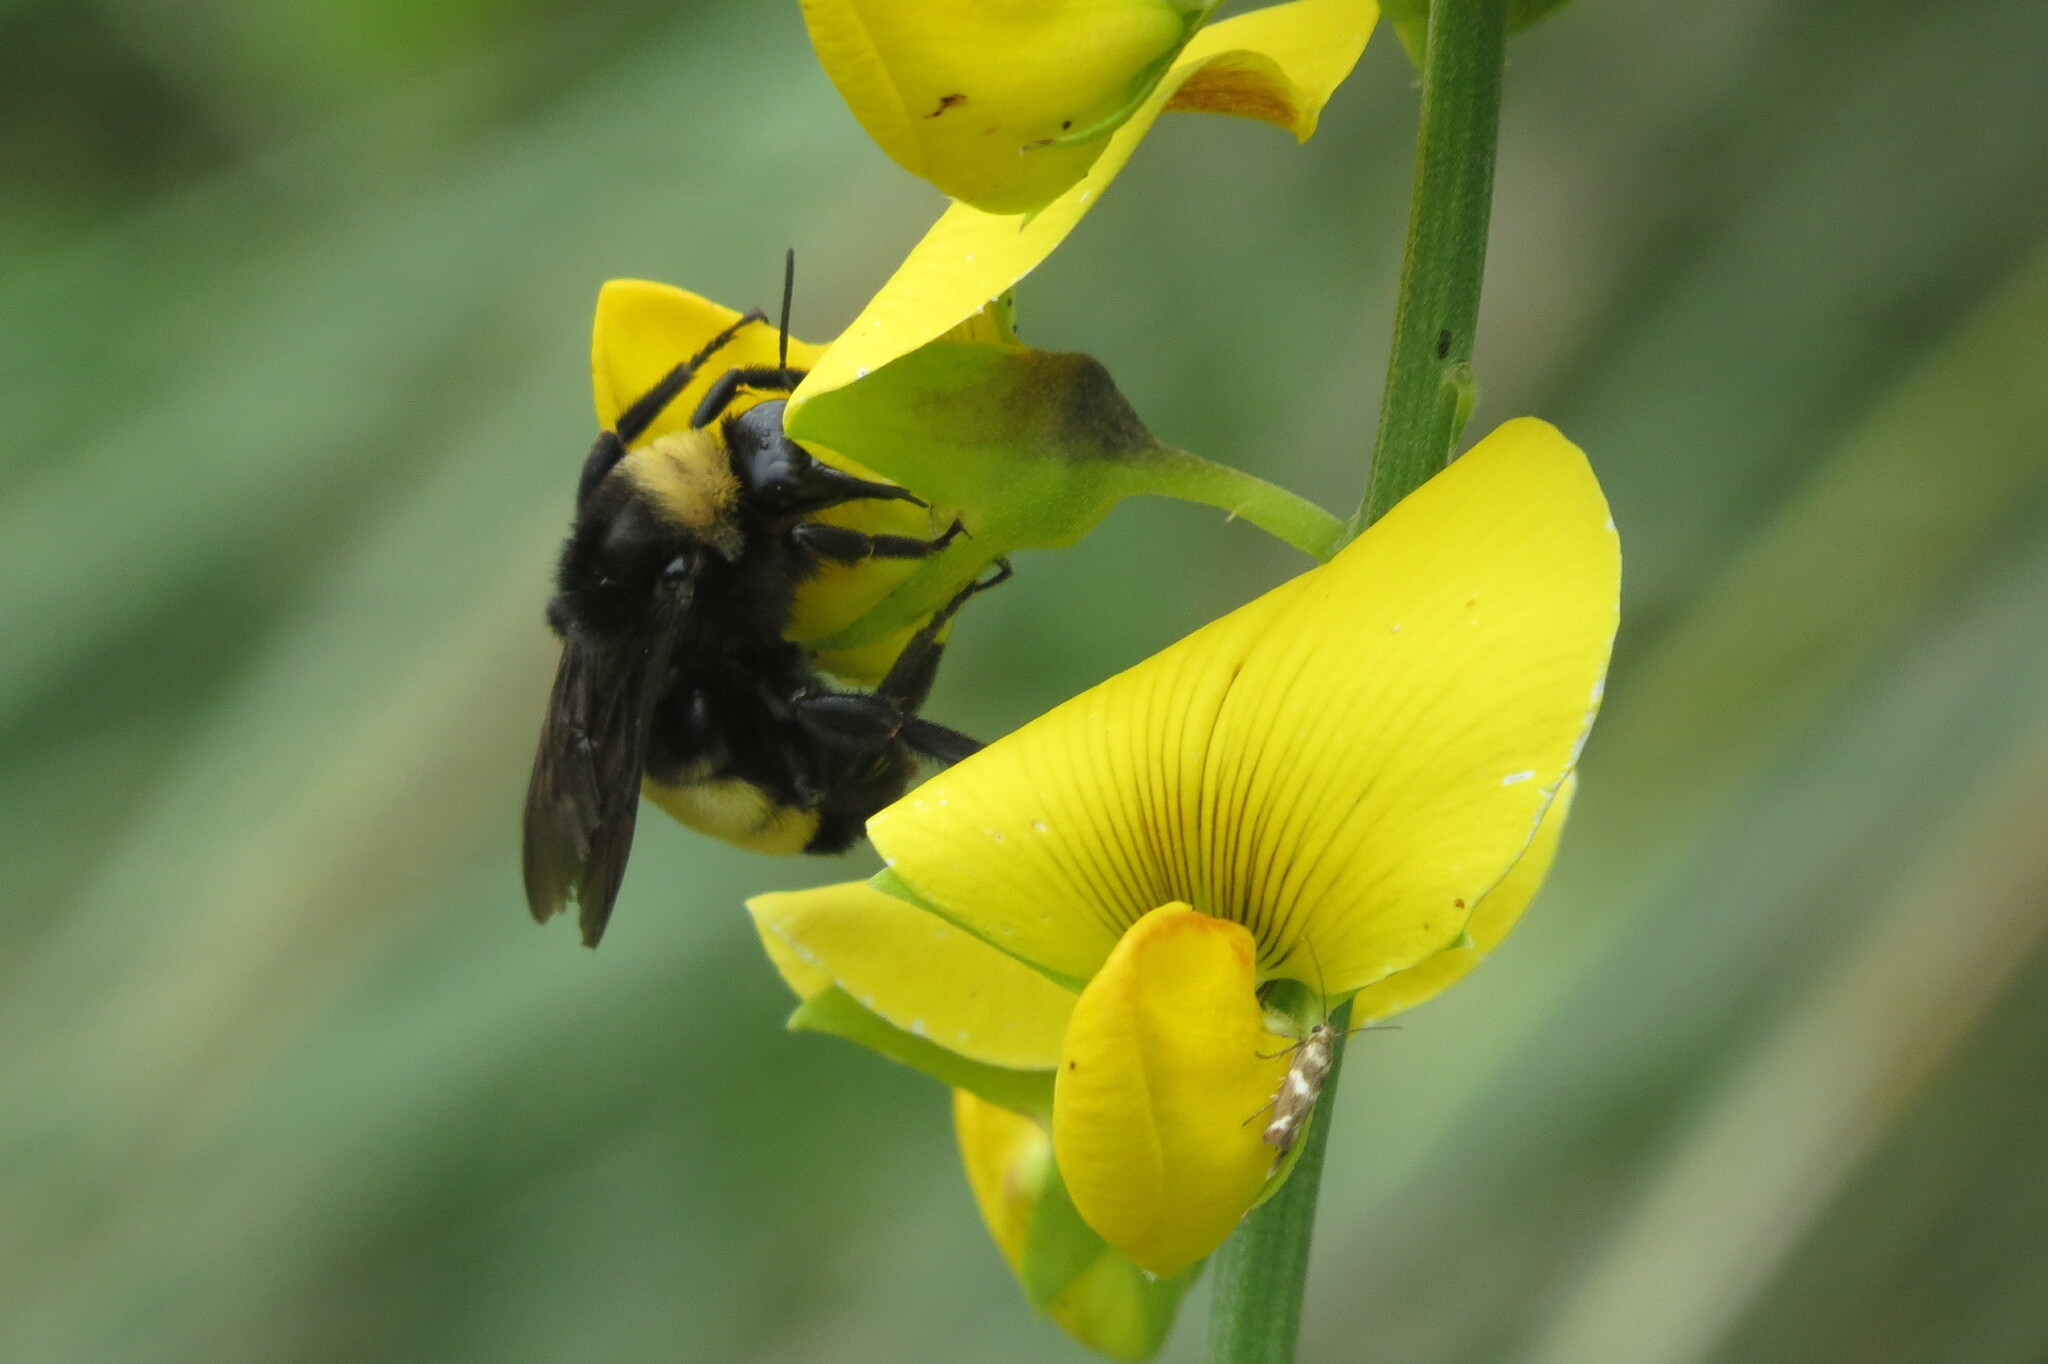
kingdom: Animalia
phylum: Arthropoda
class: Insecta
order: Hymenoptera
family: Apidae
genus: Bombus
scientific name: Bombus pensylvanicus
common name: Bumble bee
